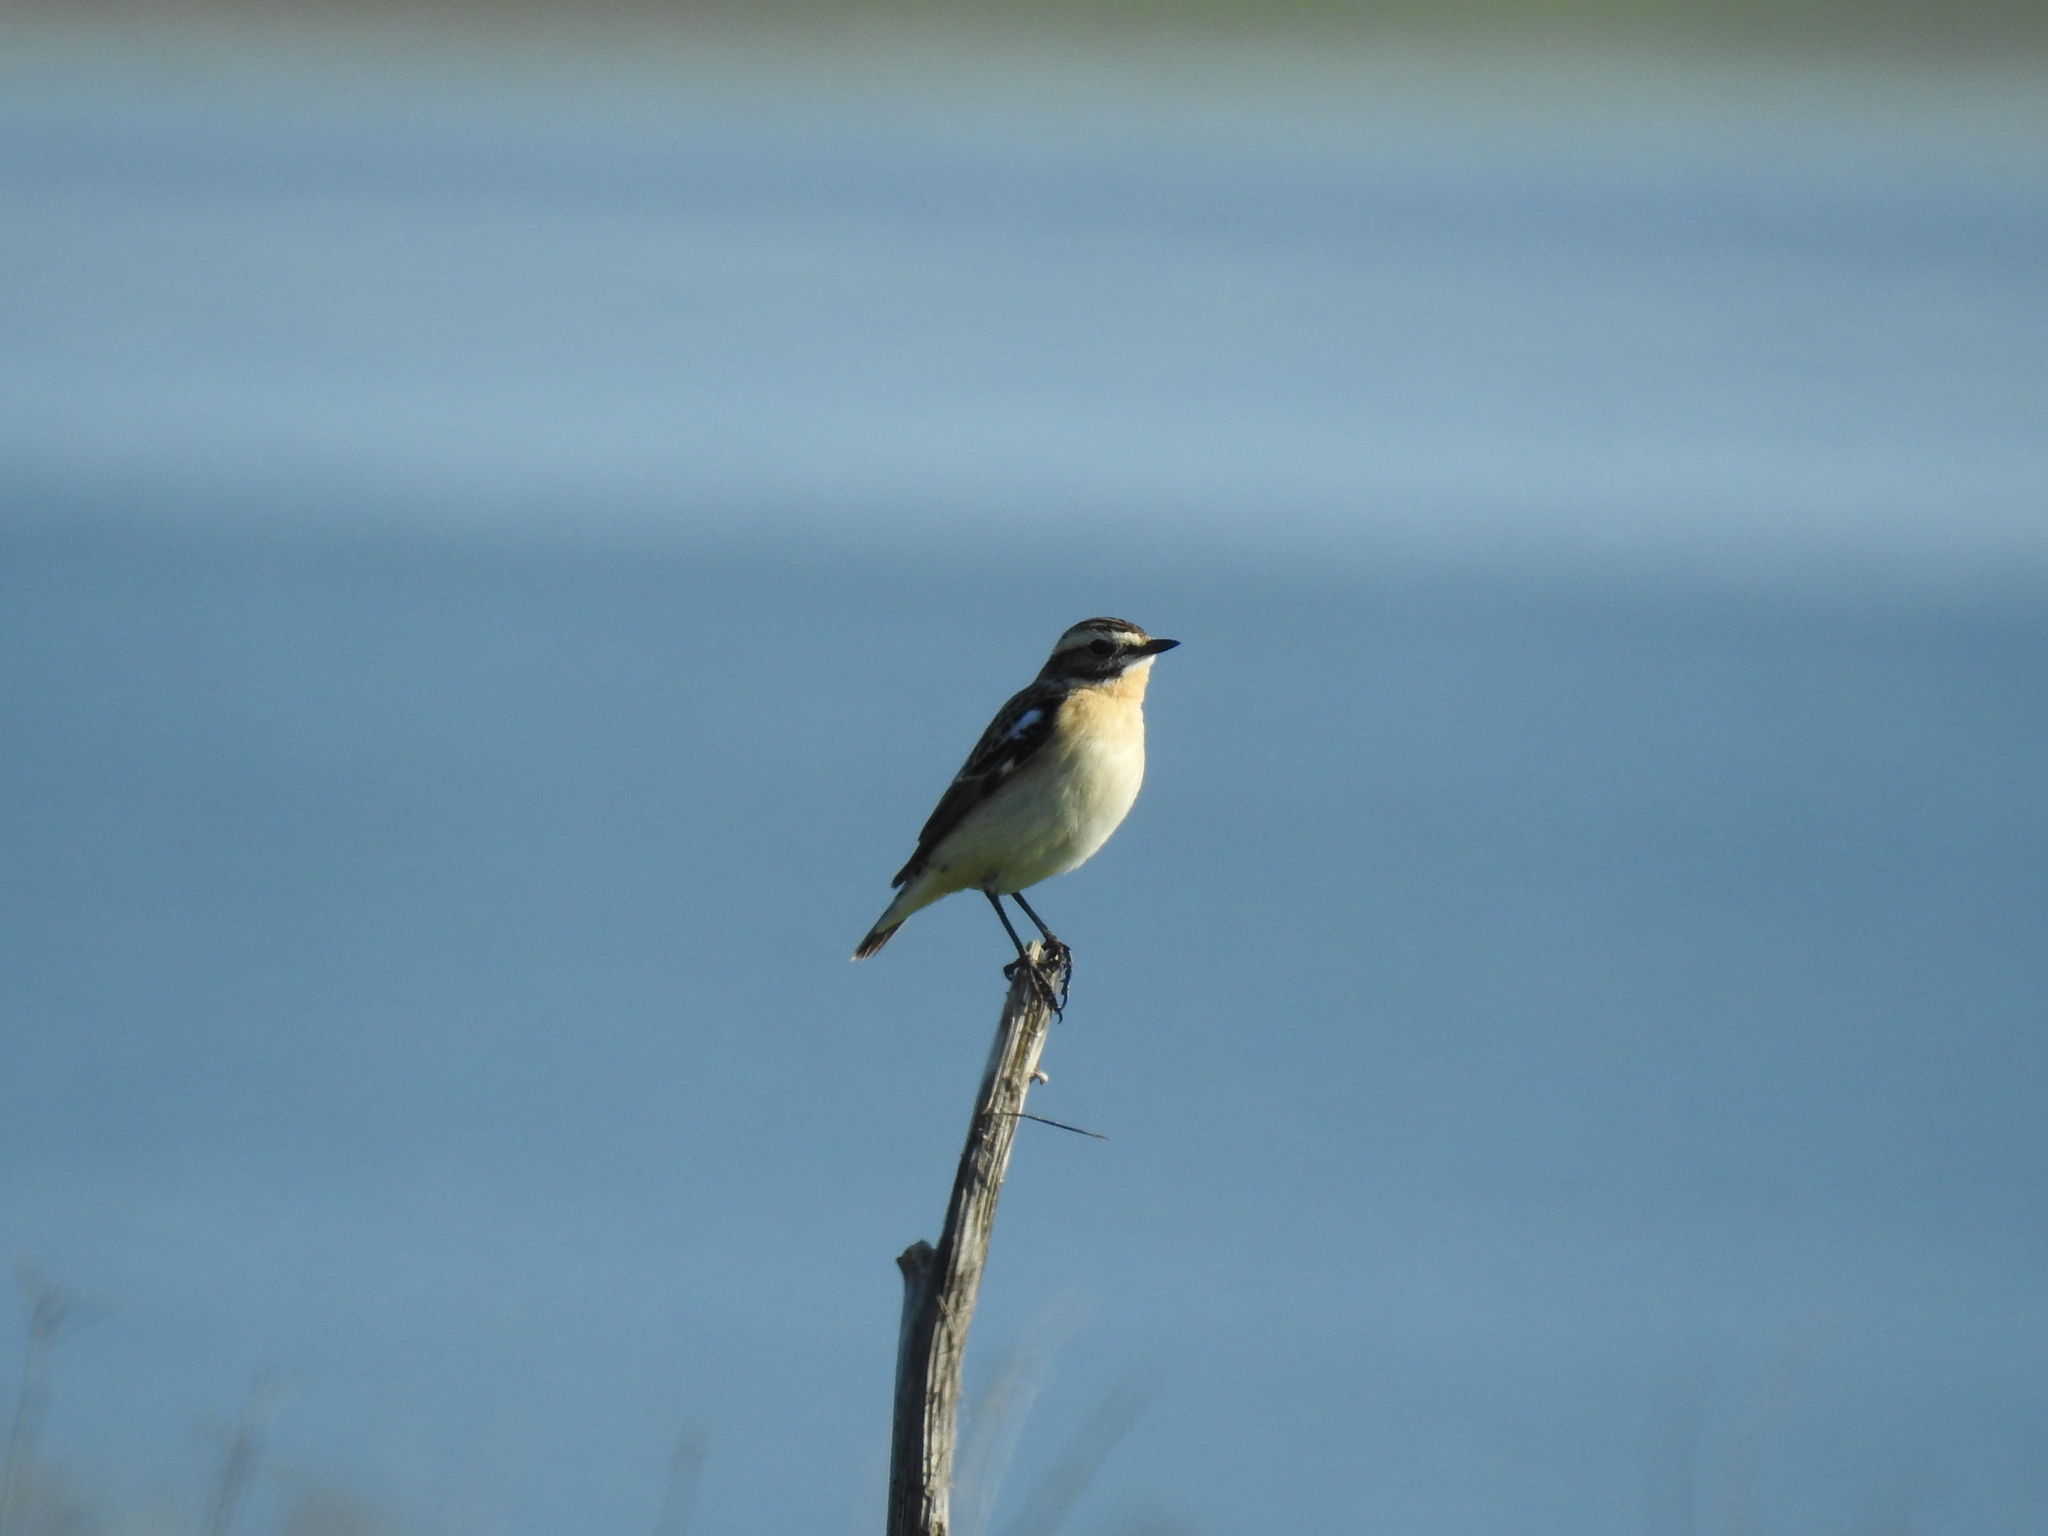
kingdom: Animalia
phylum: Chordata
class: Aves
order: Passeriformes
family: Muscicapidae
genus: Saxicola
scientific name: Saxicola rubetra
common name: Whinchat
